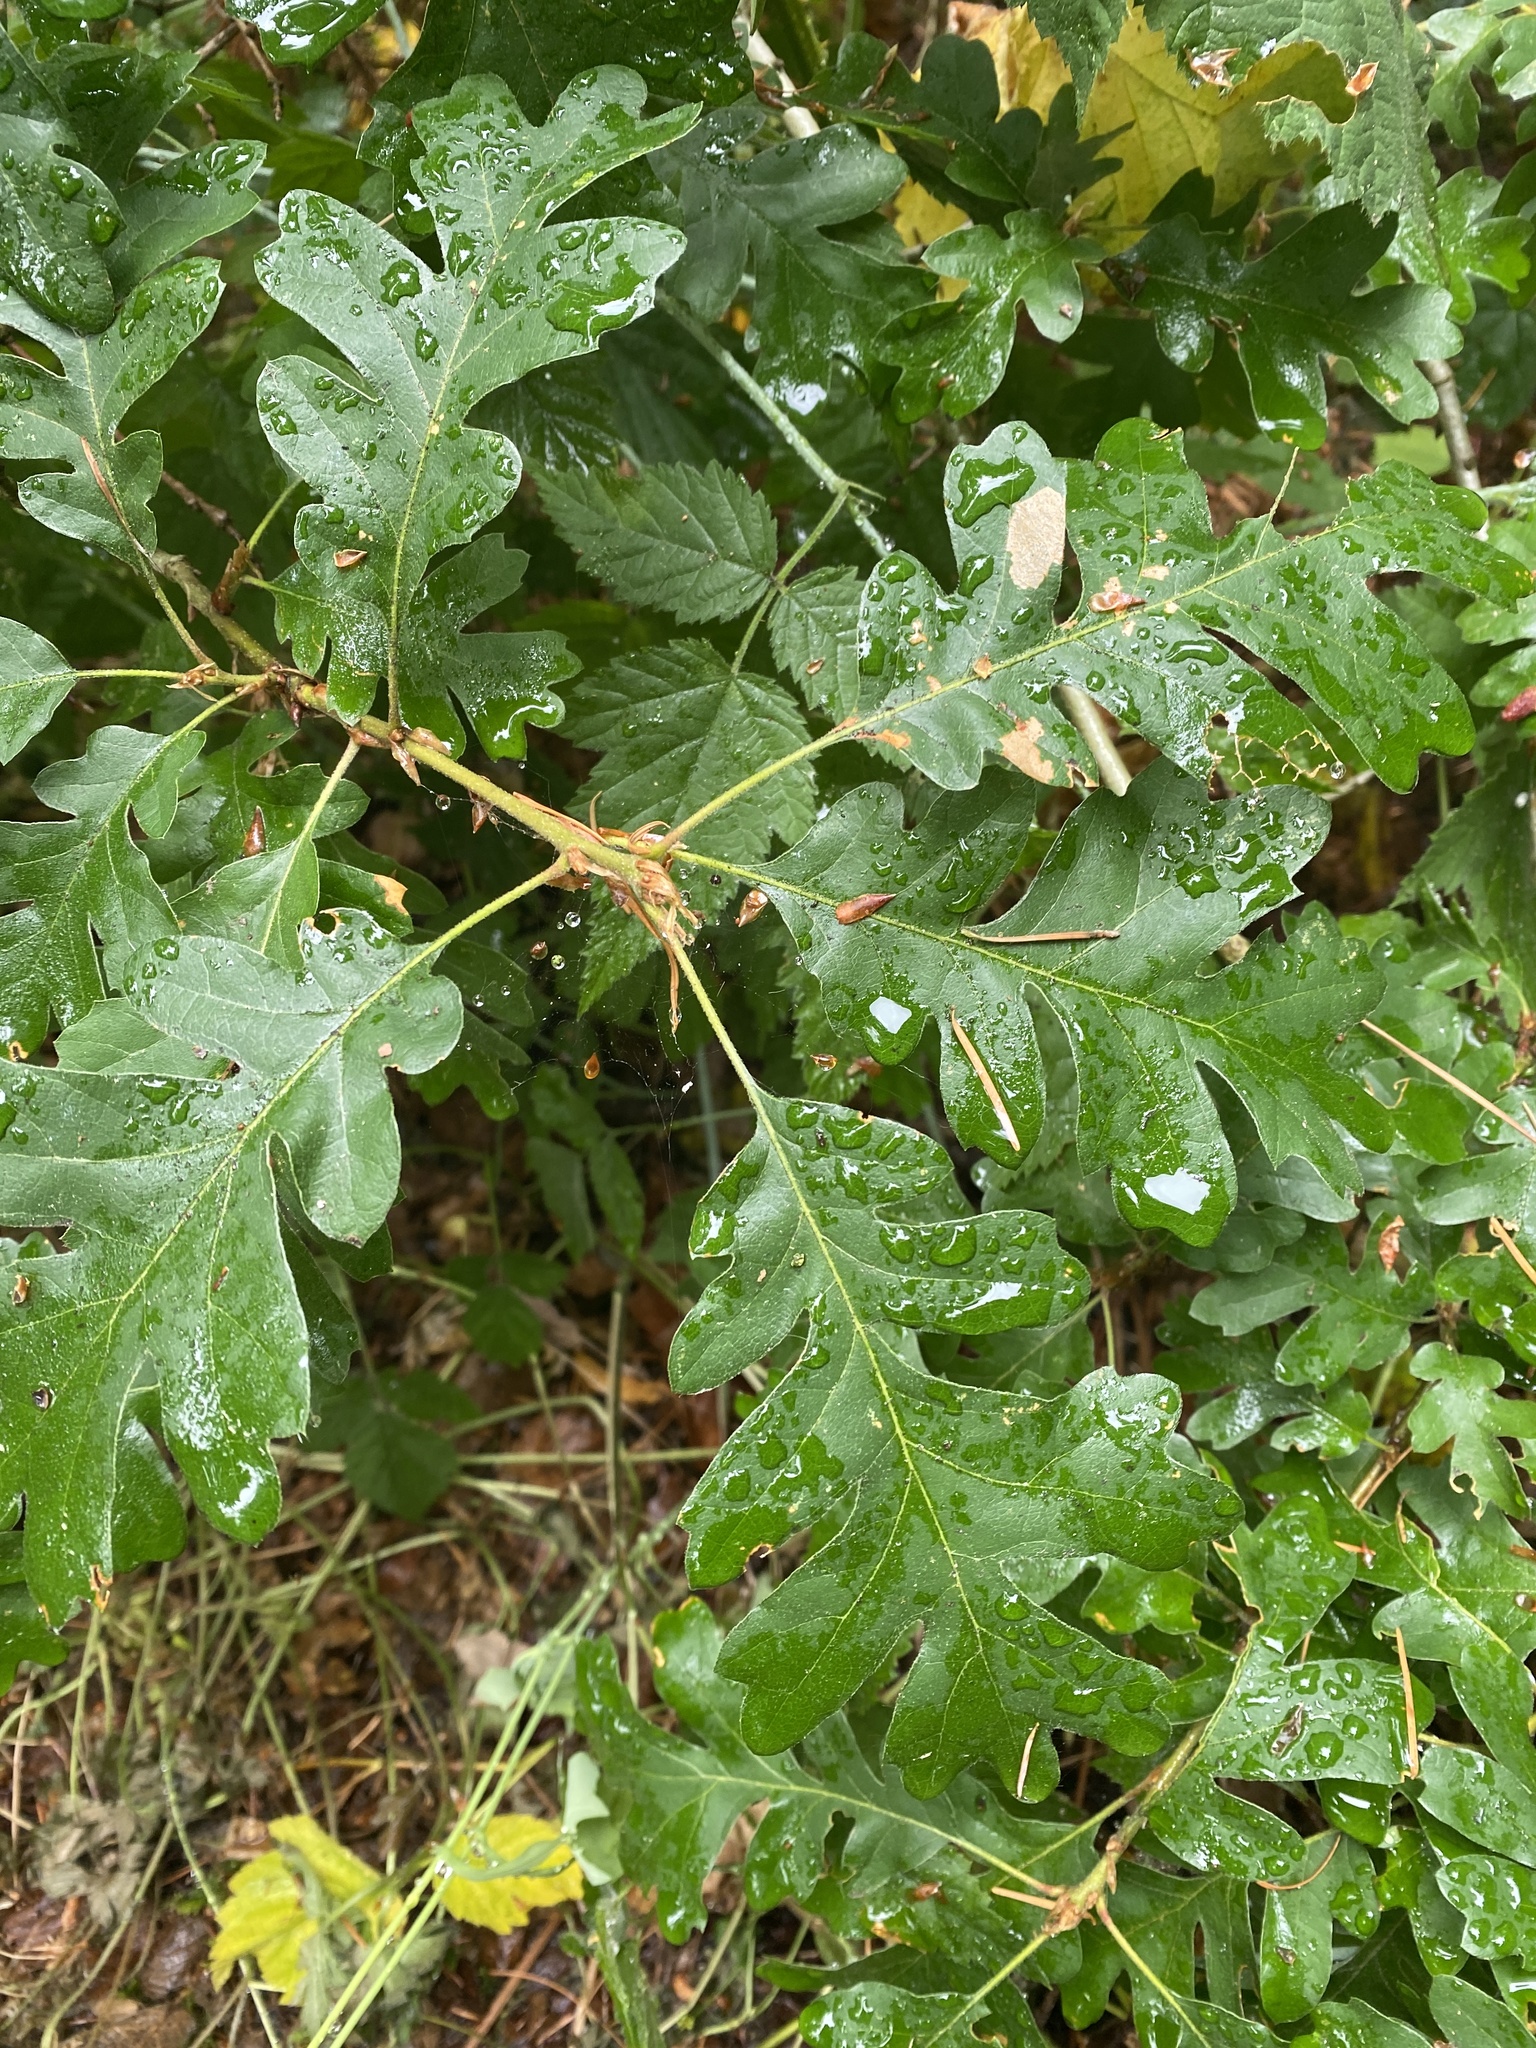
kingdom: Plantae
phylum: Tracheophyta
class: Magnoliopsida
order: Fagales
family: Fagaceae
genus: Quercus
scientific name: Quercus garryana
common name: Garry oak
